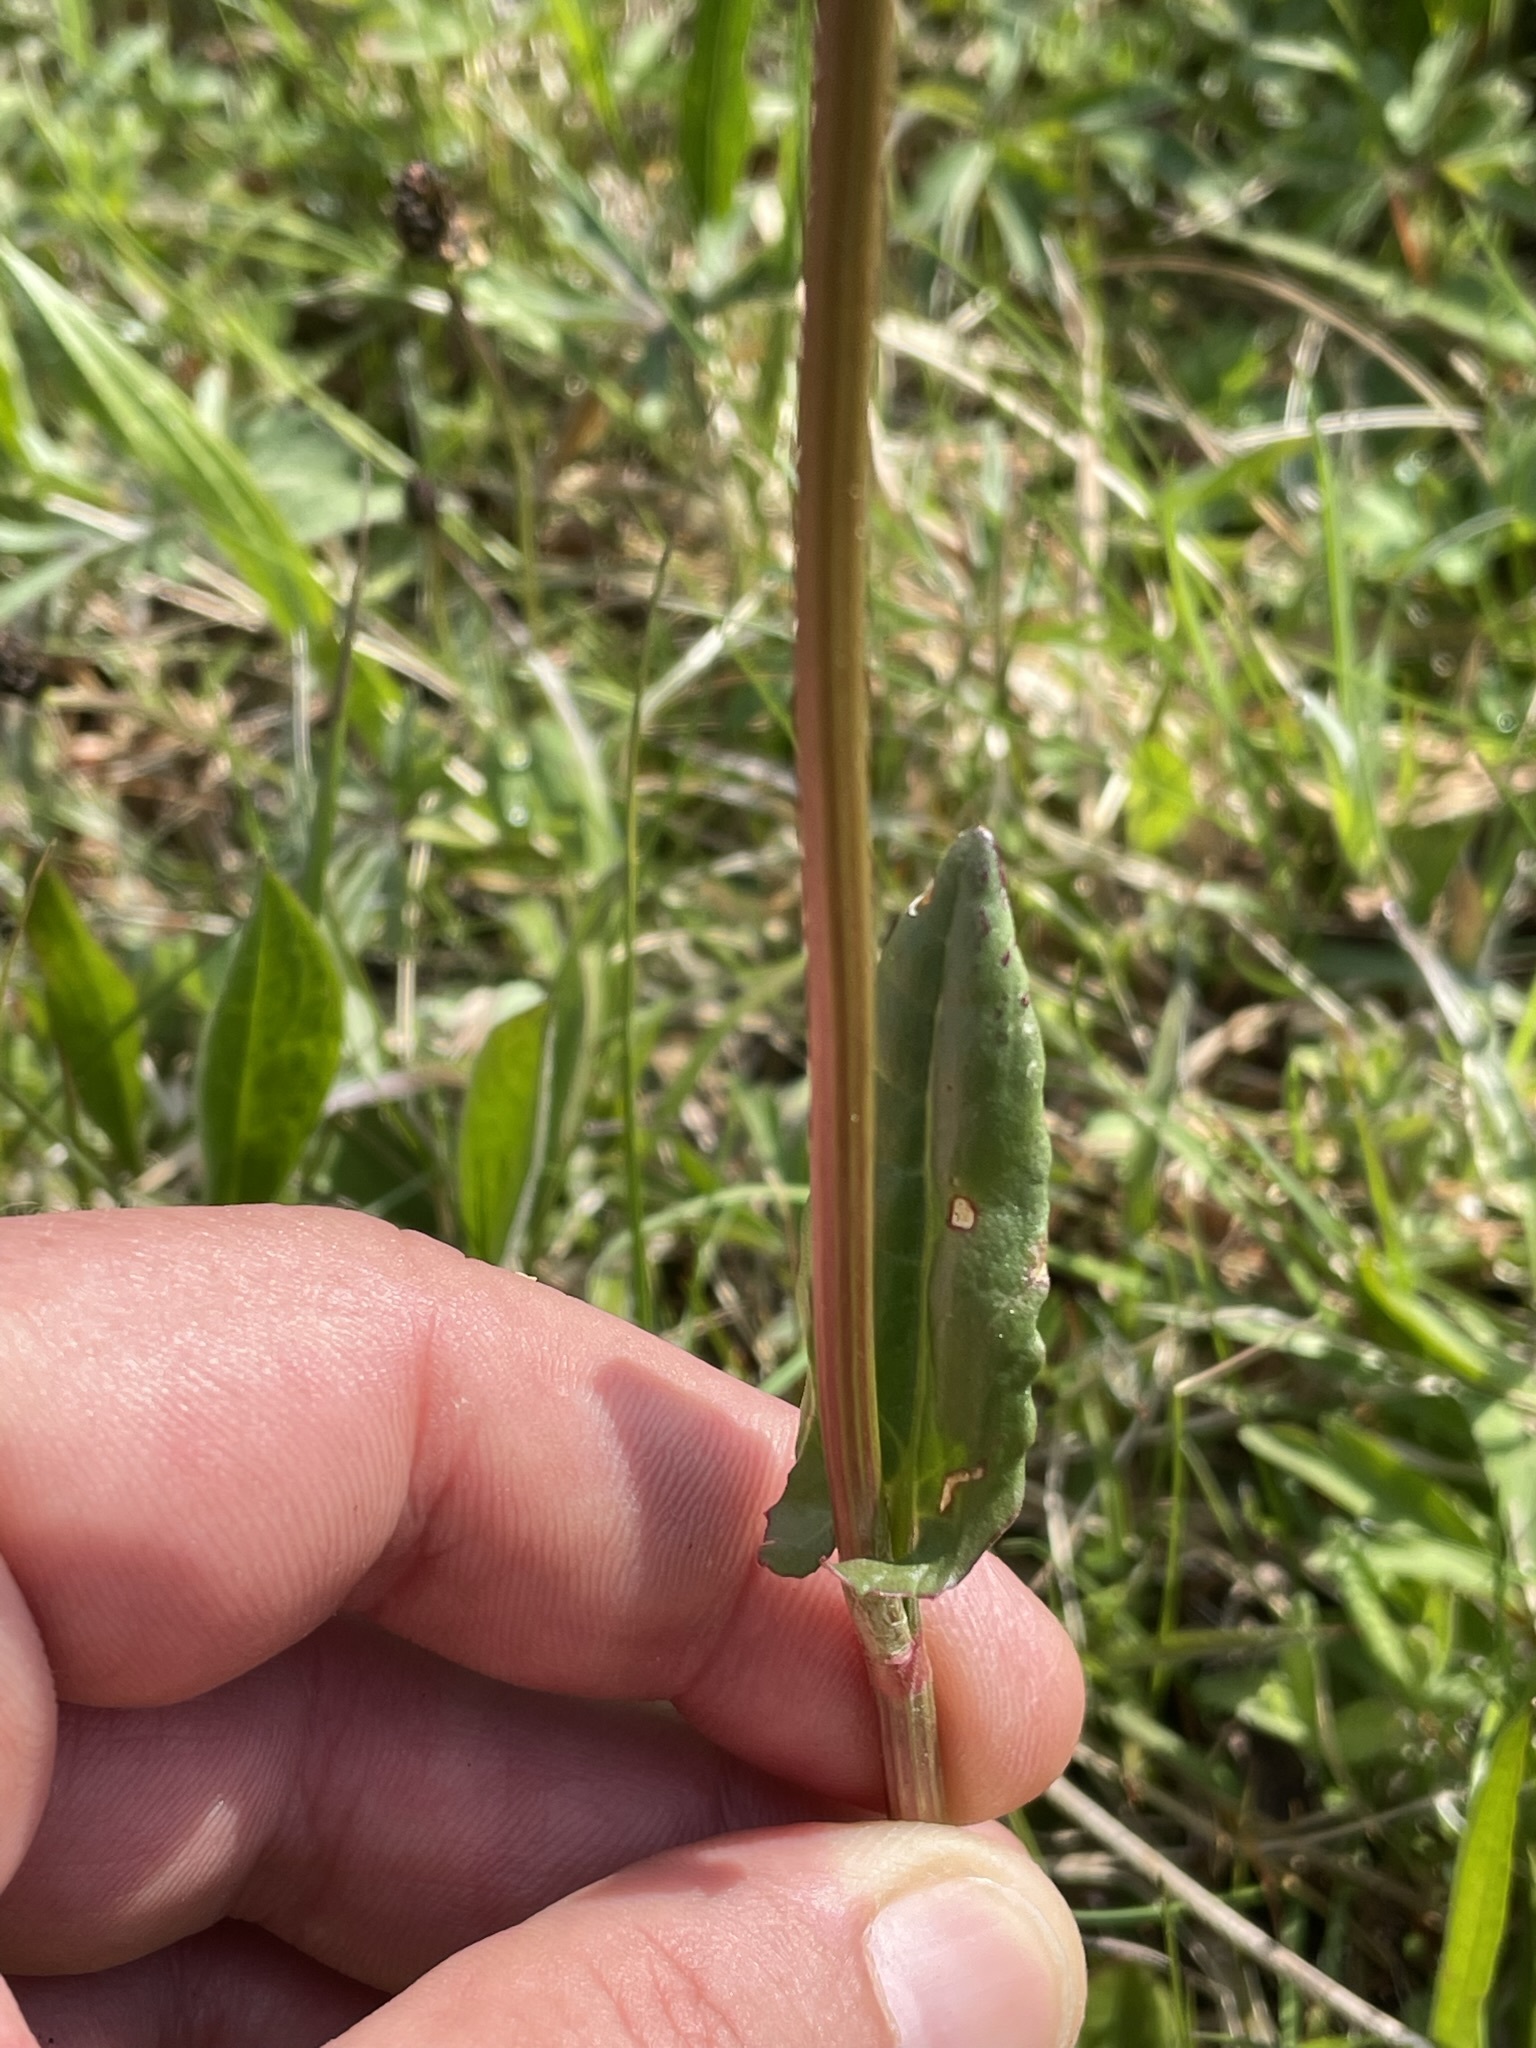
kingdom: Plantae
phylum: Tracheophyta
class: Magnoliopsida
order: Caryophyllales
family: Polygonaceae
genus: Rumex
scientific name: Rumex acetosa
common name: Garden sorrel
